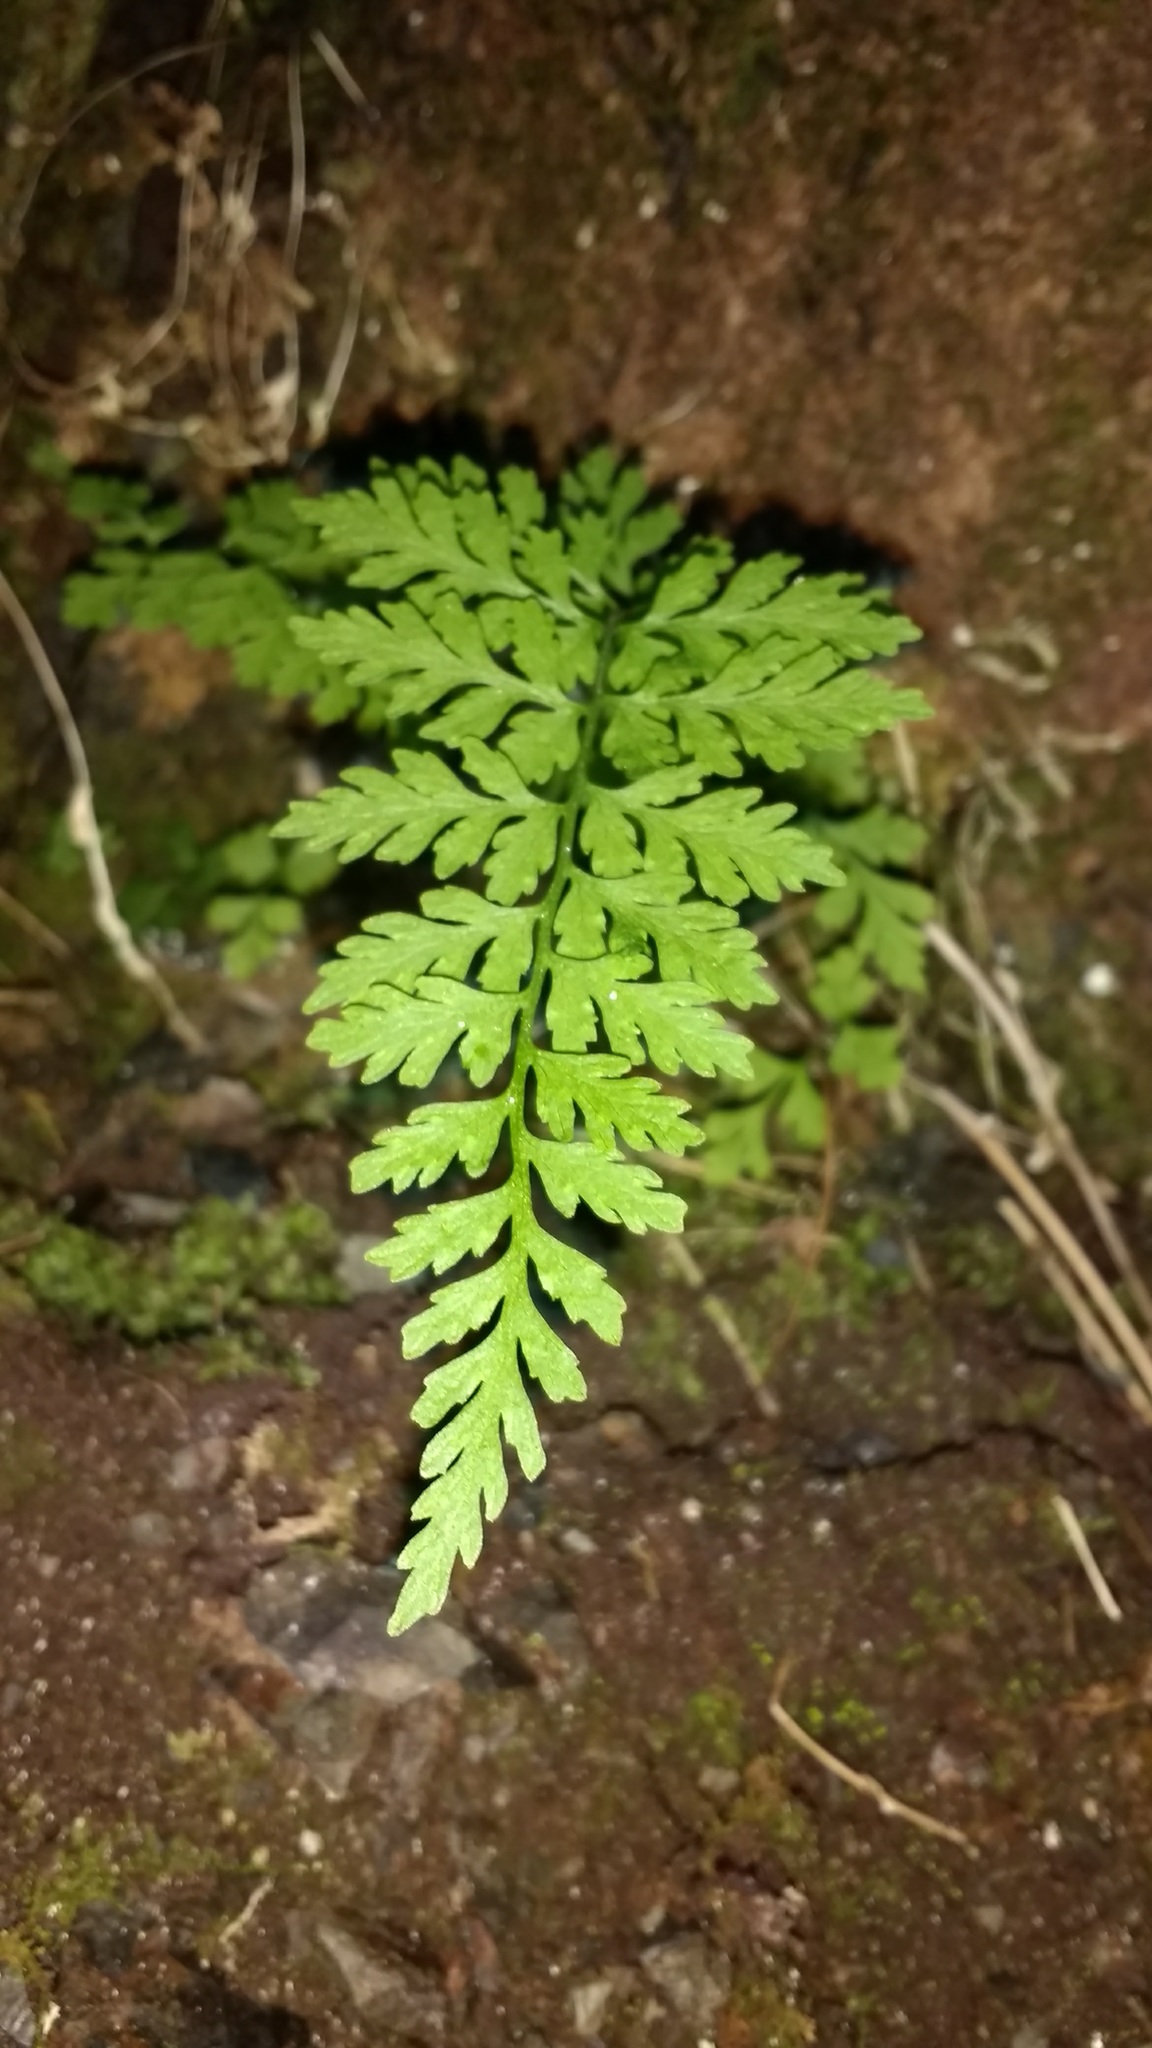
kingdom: Plantae
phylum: Tracheophyta
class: Polypodiopsida
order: Polypodiales
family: Aspleniaceae
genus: Asplenium
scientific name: Asplenium adiantum-nigrum
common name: Black spleenwort
